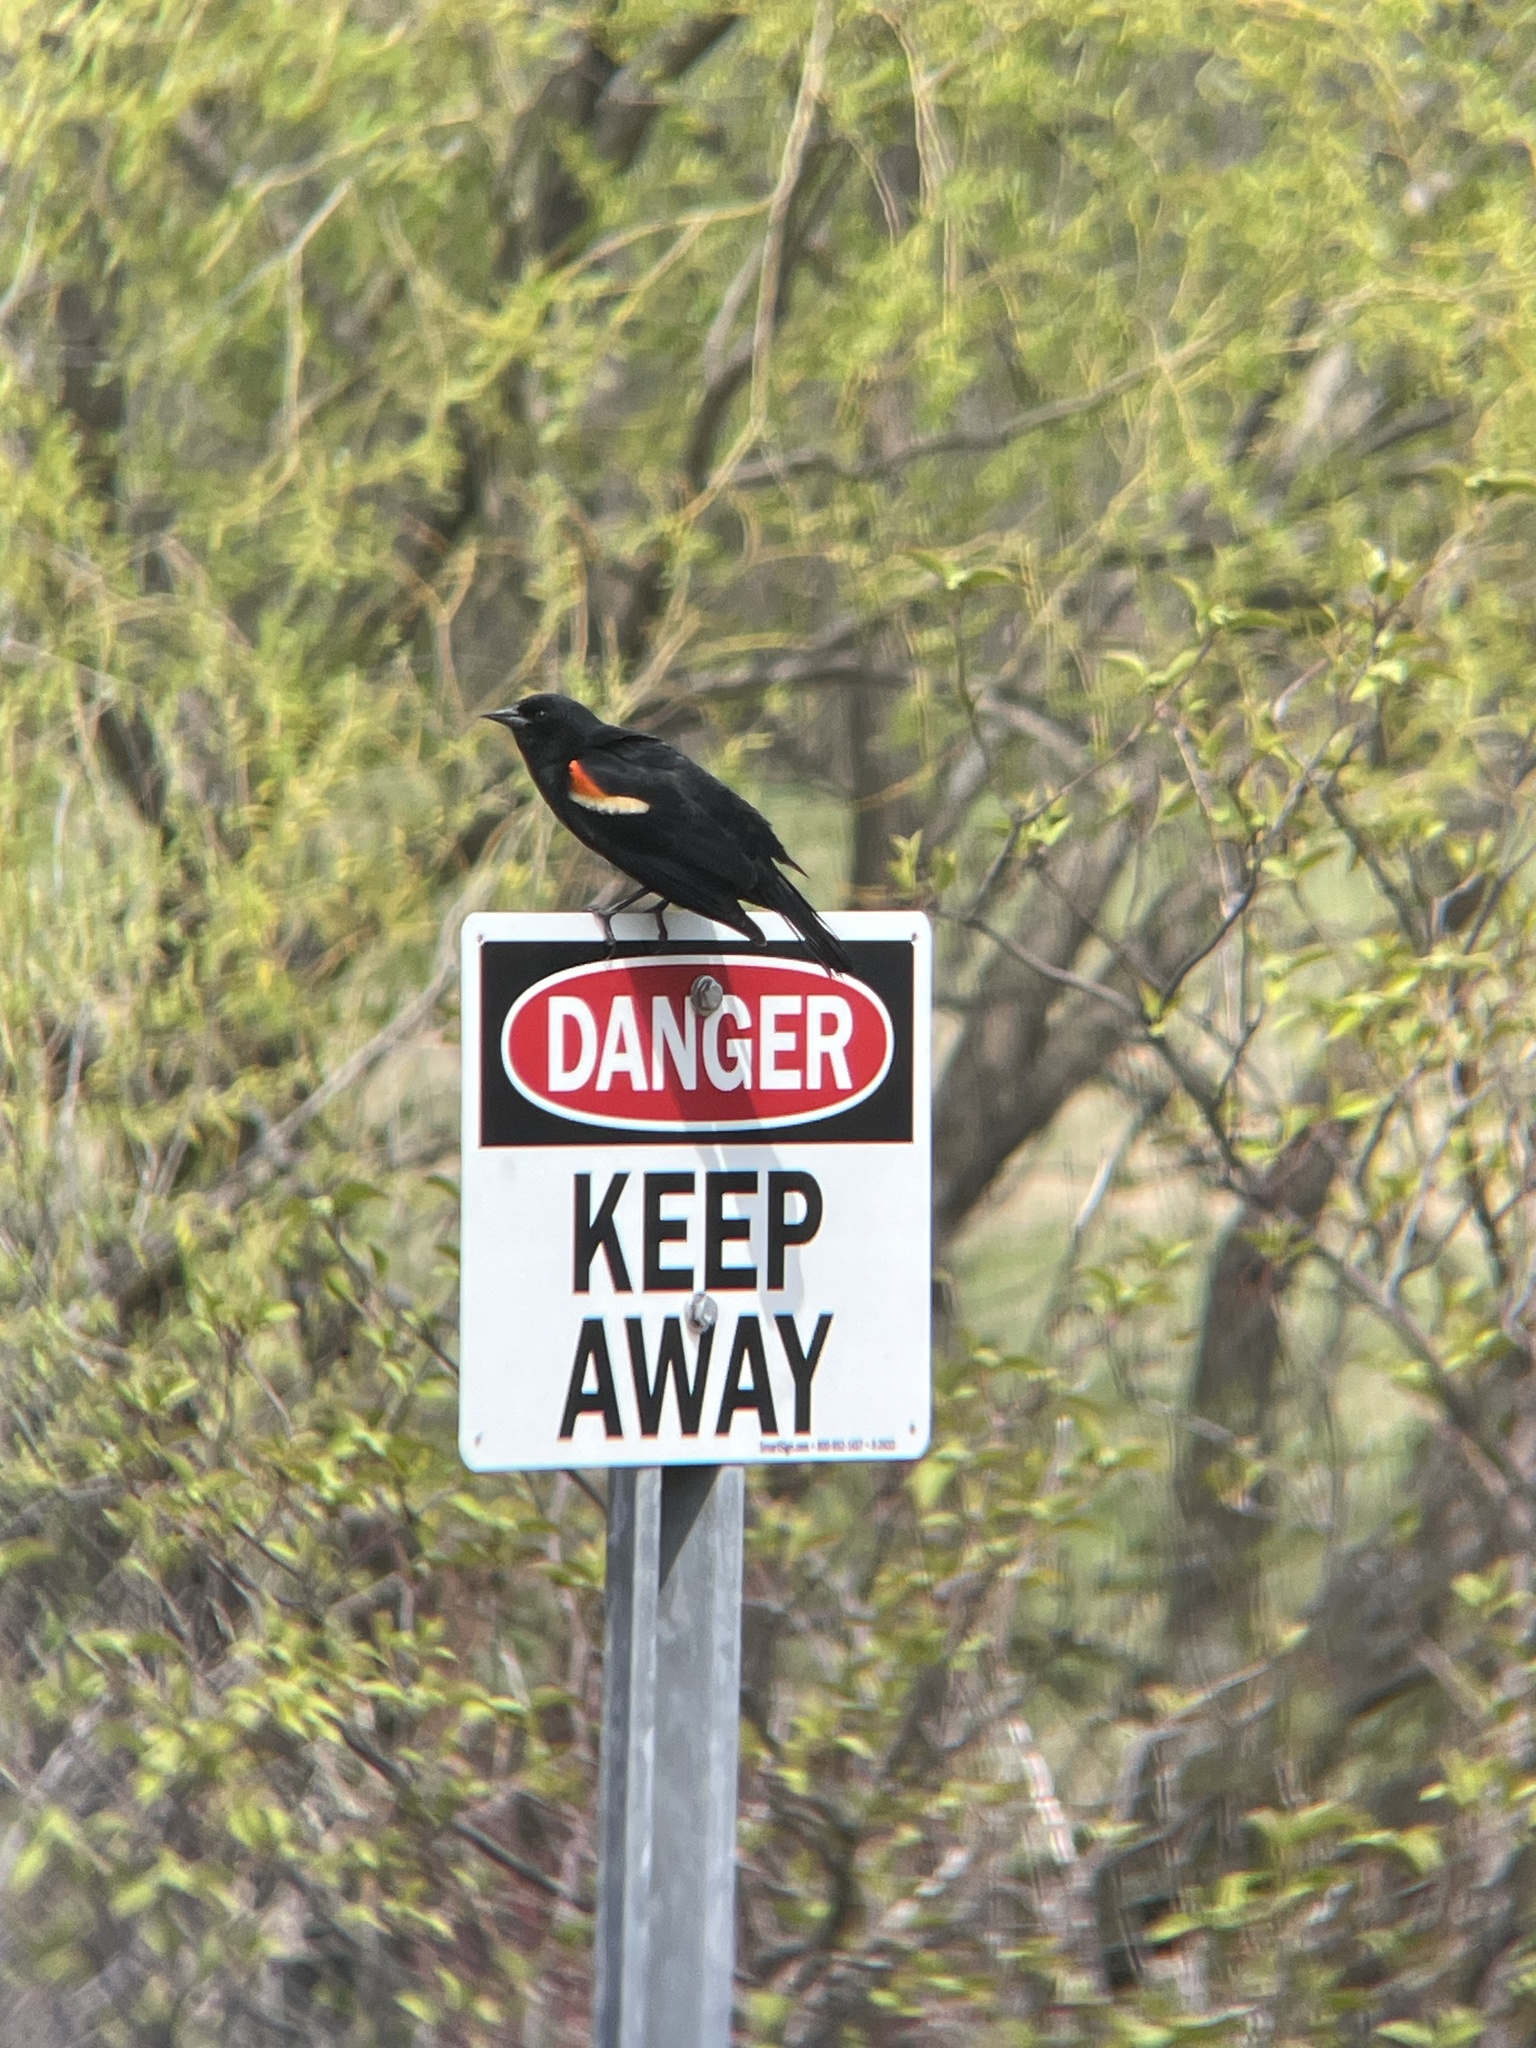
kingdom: Animalia
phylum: Chordata
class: Aves
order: Passeriformes
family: Icteridae
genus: Agelaius
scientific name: Agelaius phoeniceus
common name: Red-winged blackbird
